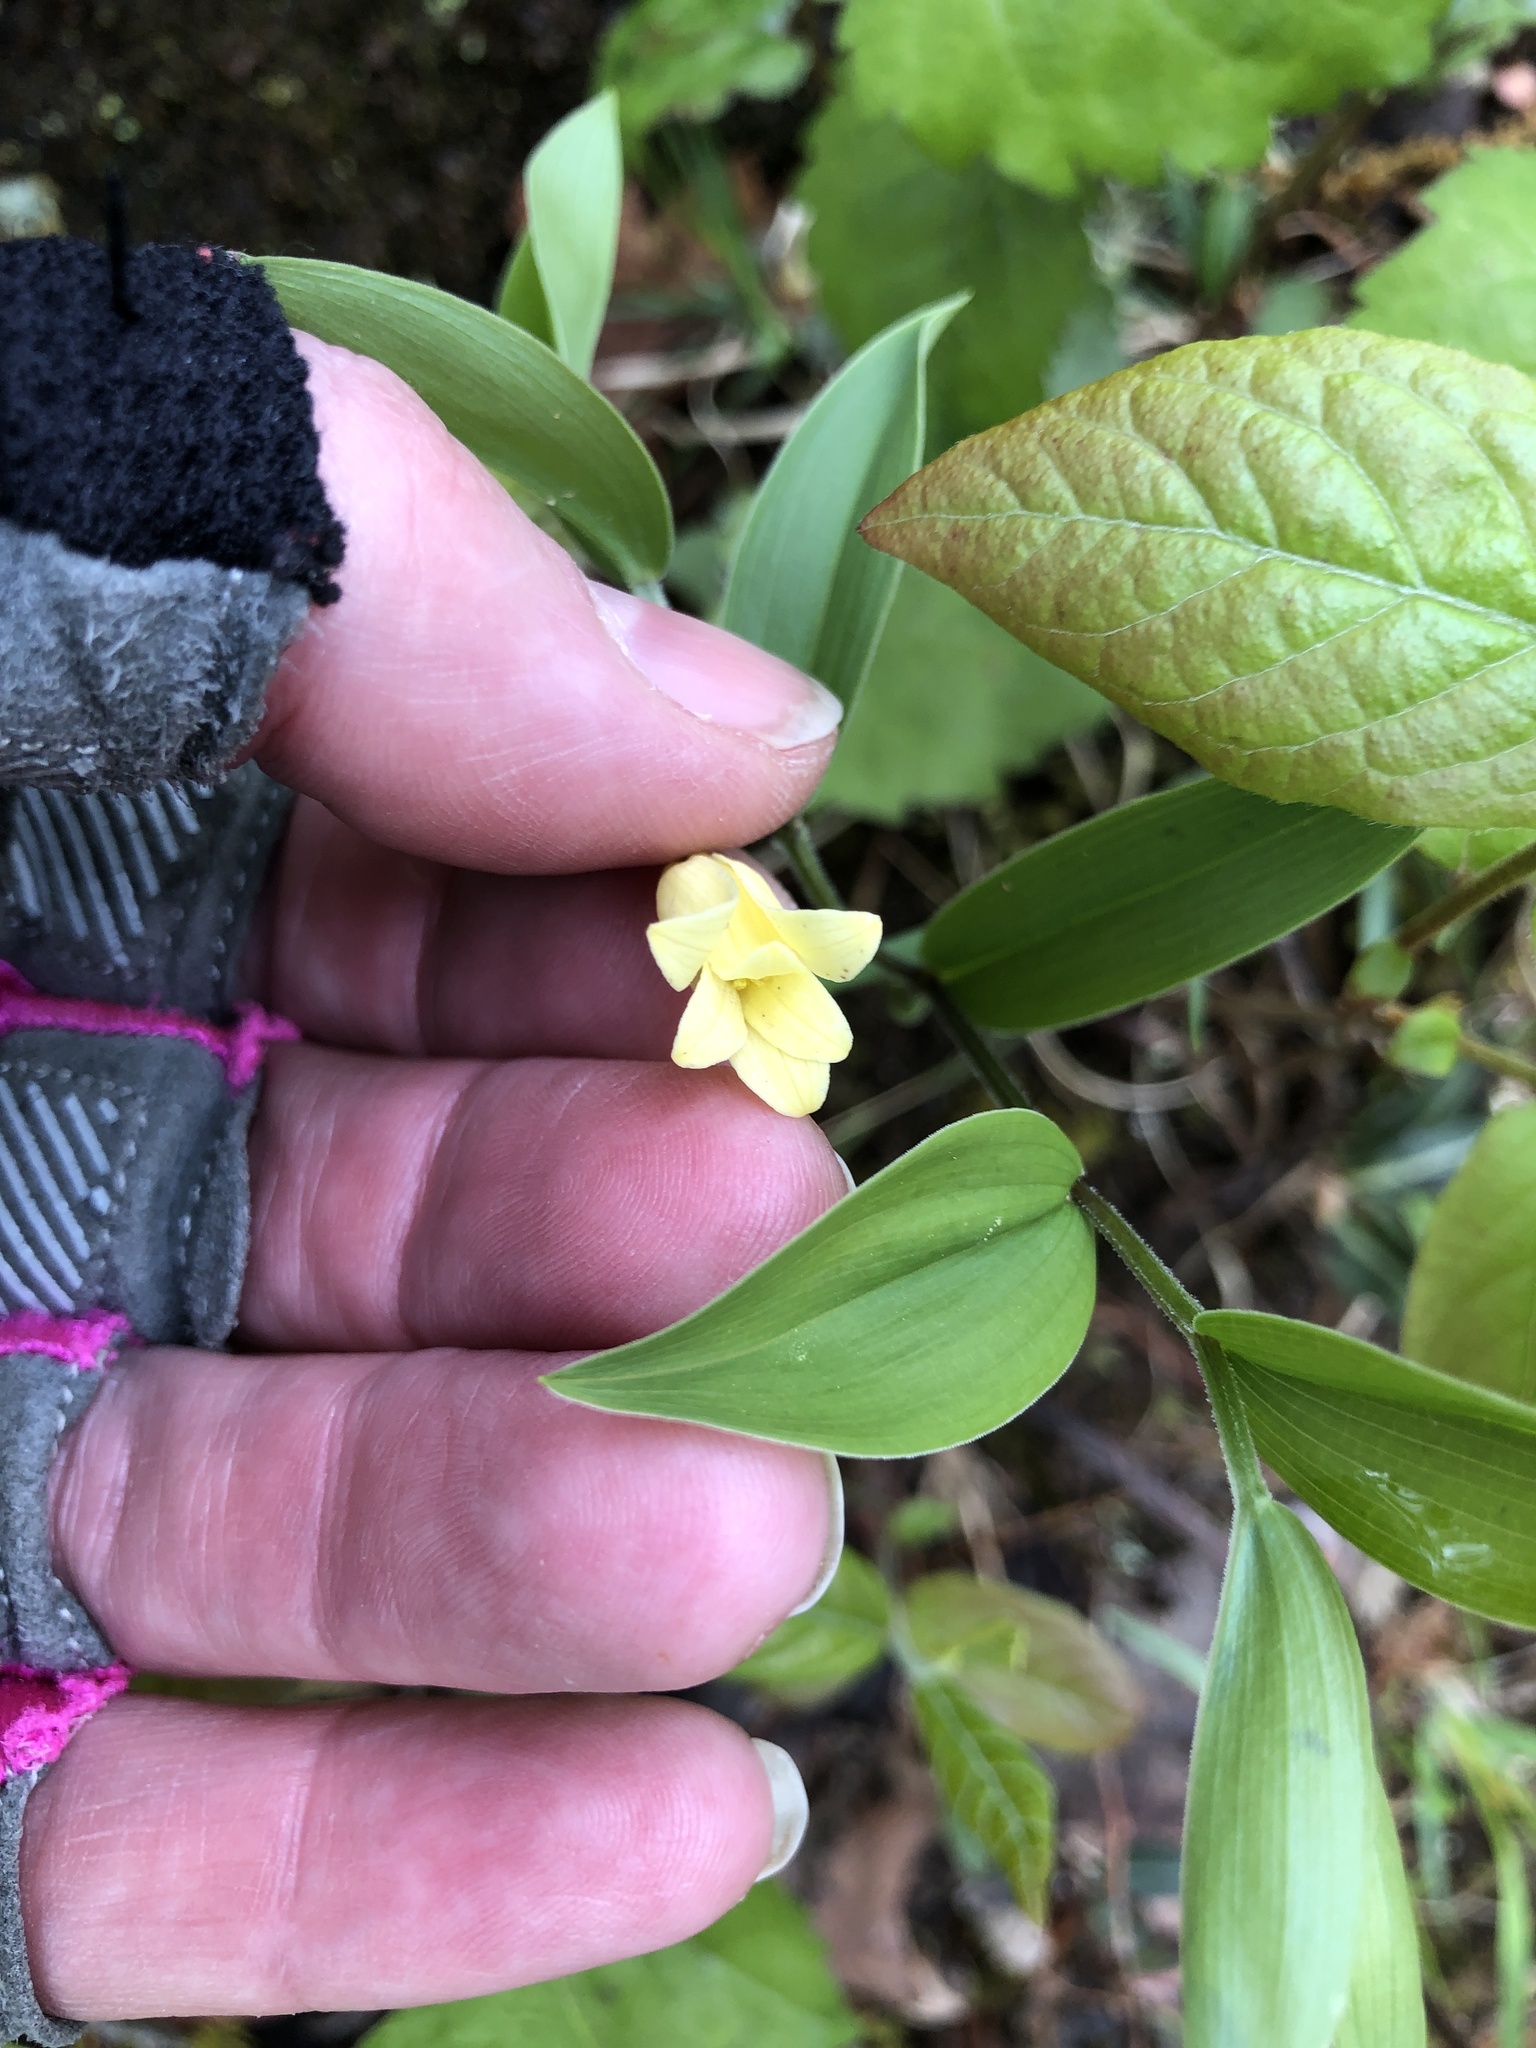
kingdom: Plantae
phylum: Tracheophyta
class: Liliopsida
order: Liliales
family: Colchicaceae
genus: Uvularia
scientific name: Uvularia puberula
